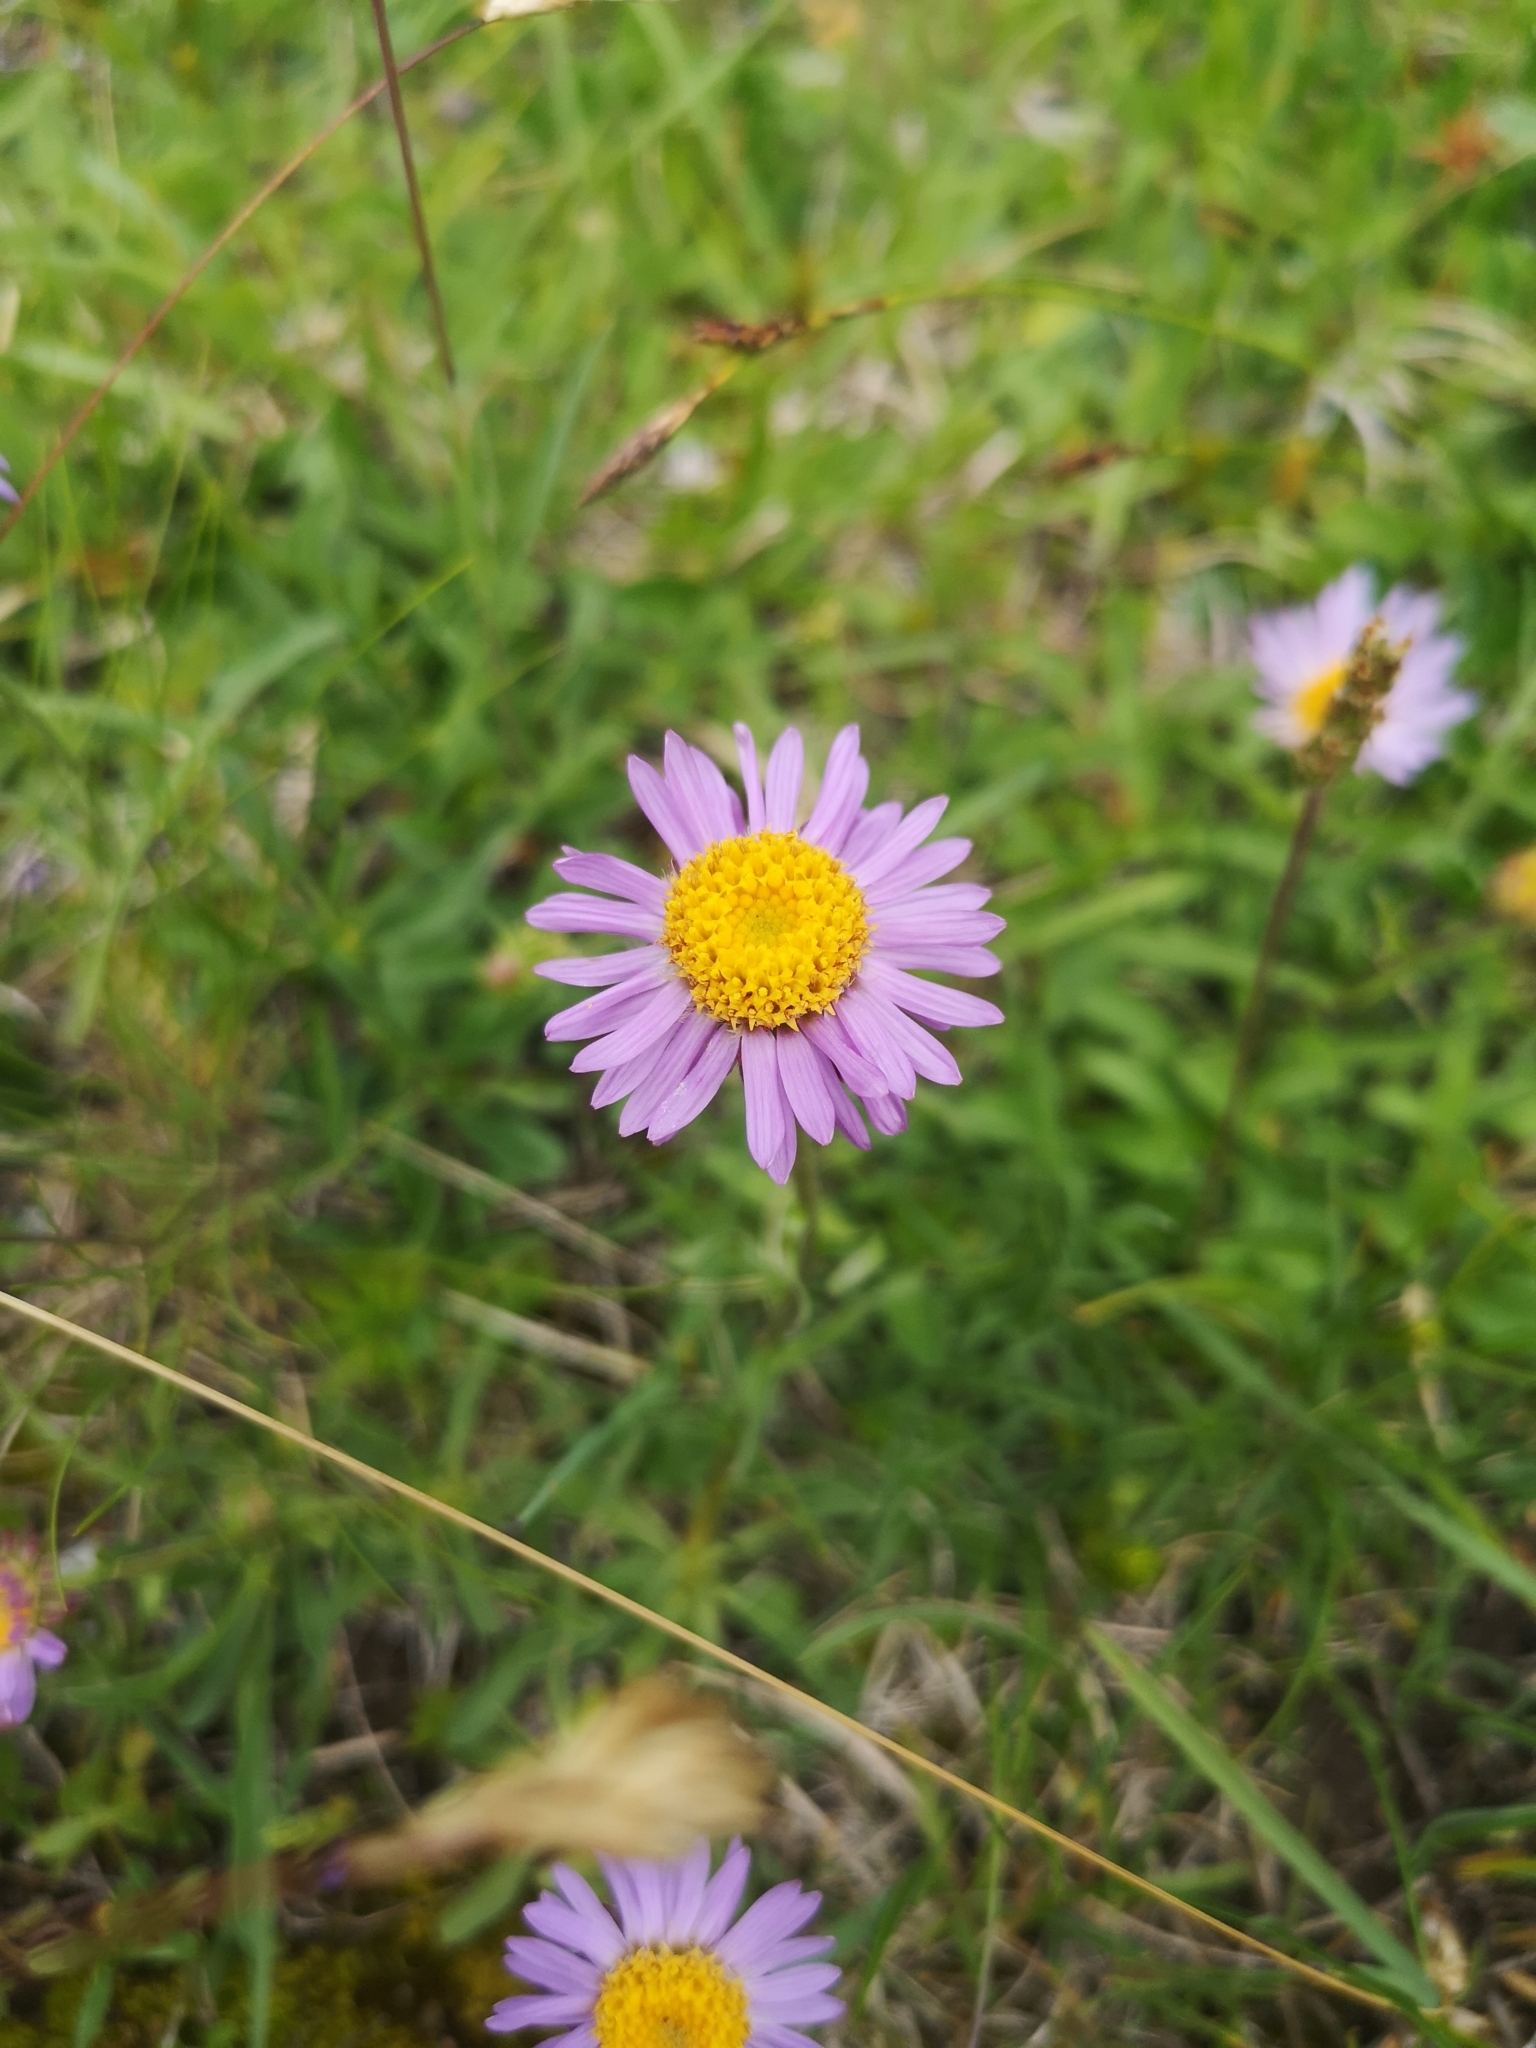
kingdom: Plantae
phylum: Tracheophyta
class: Magnoliopsida
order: Asterales
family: Asteraceae
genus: Aster
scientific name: Aster alpinus
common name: Alpine aster
